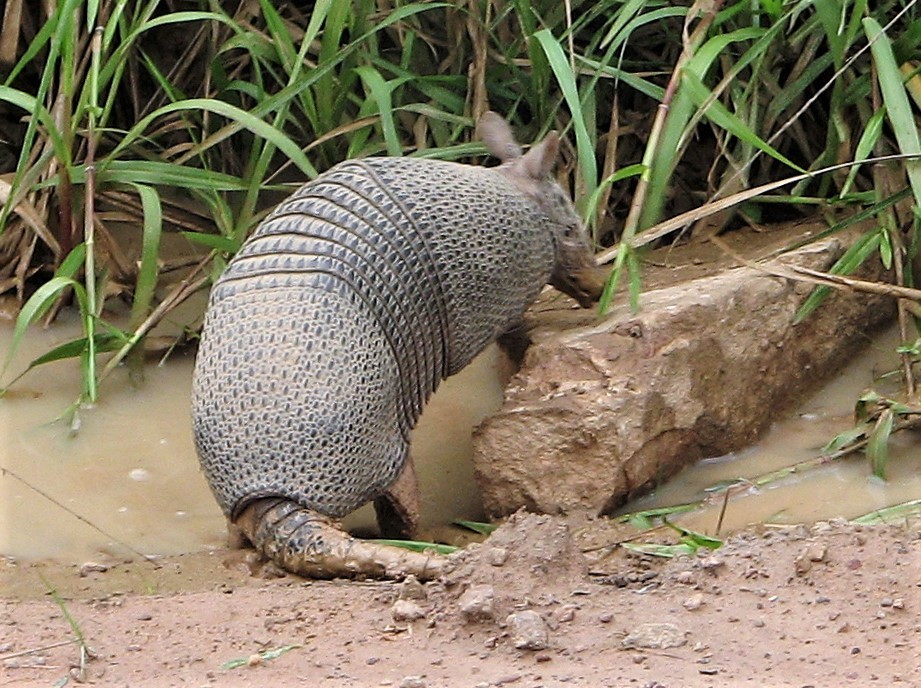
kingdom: Animalia
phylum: Chordata
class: Mammalia
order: Cingulata
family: Dasypodidae
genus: Dasypus
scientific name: Dasypus septemcinctus
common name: Seven-banded armadillo
